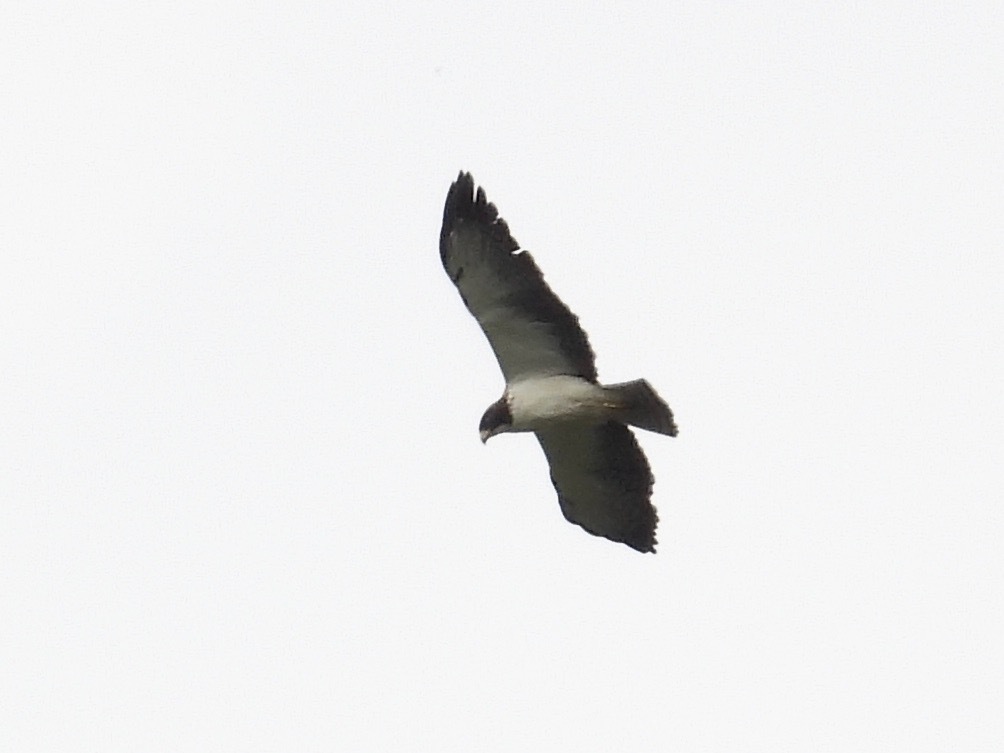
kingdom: Animalia
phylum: Chordata
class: Aves
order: Accipitriformes
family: Accipitridae
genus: Buteo
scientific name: Buteo brachyurus
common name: Short-tailed hawk
